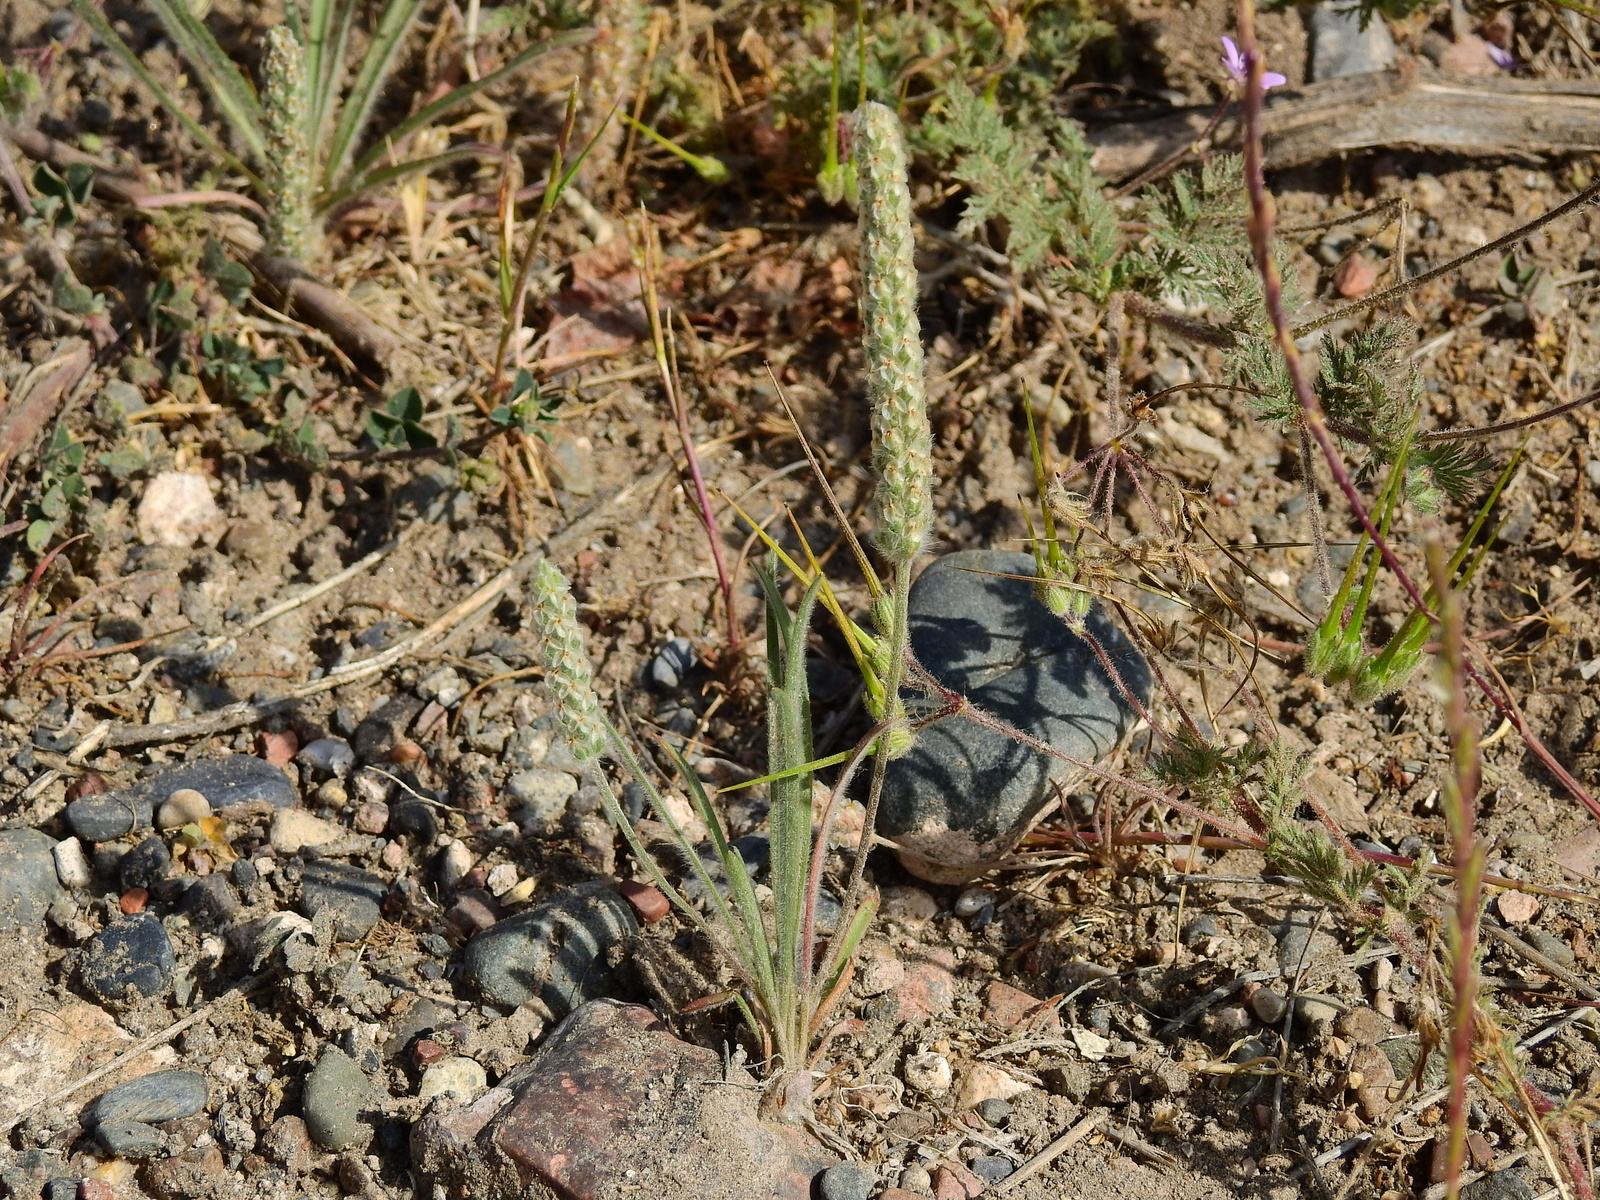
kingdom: Plantae
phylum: Tracheophyta
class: Magnoliopsida
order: Lamiales
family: Plantaginaceae
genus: Plantago
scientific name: Plantago patagonica
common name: Patagonia indian-wheat
